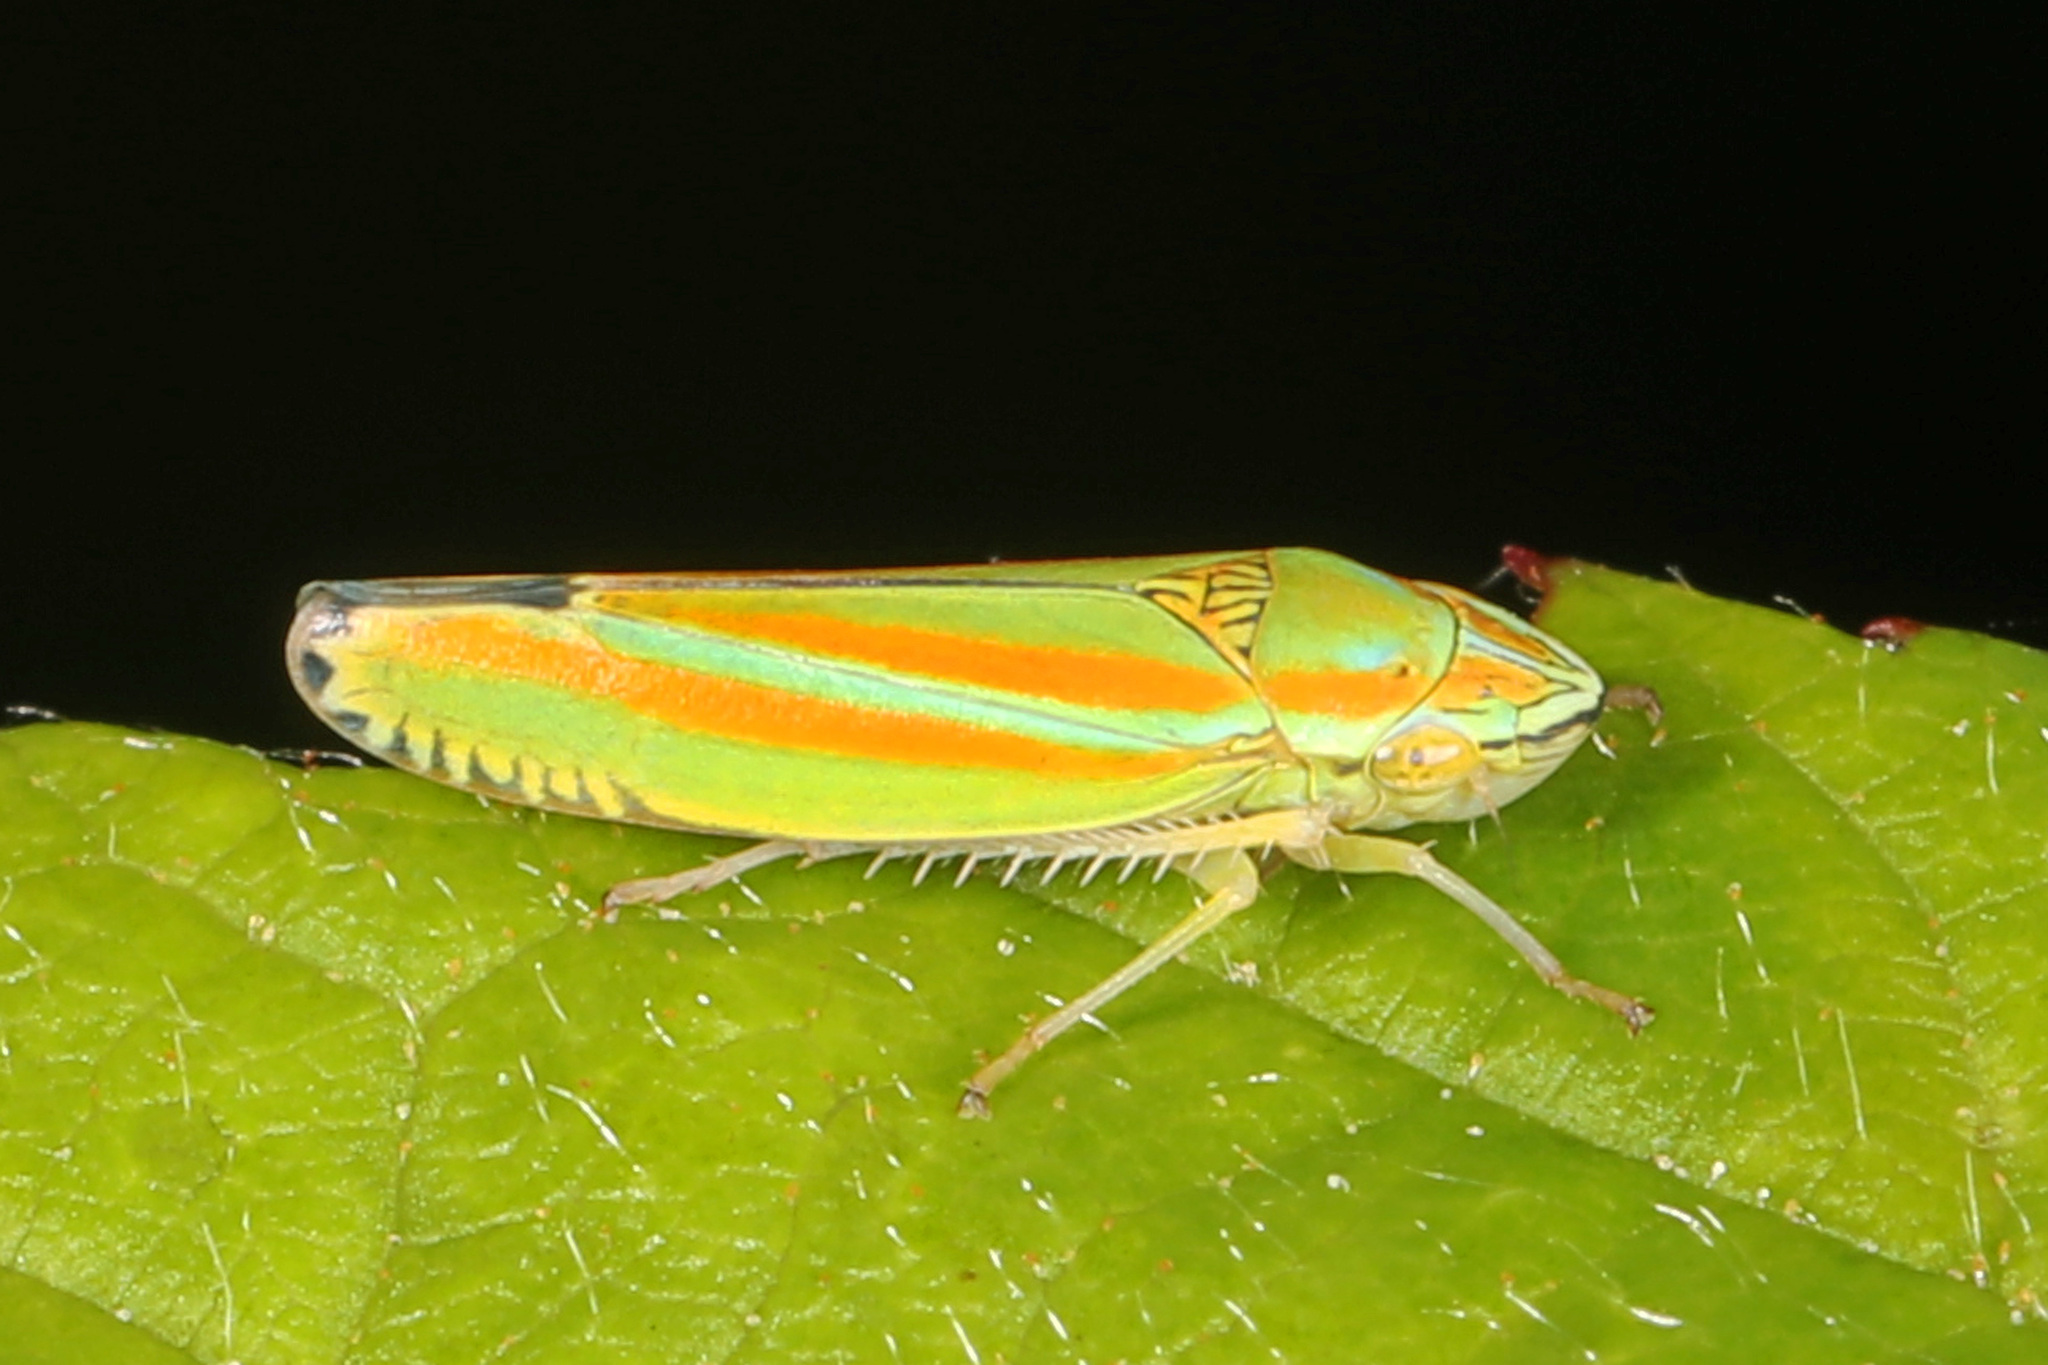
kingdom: Animalia
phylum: Arthropoda
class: Insecta
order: Hemiptera
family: Cicadellidae
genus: Graphocephala
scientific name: Graphocephala versuta
